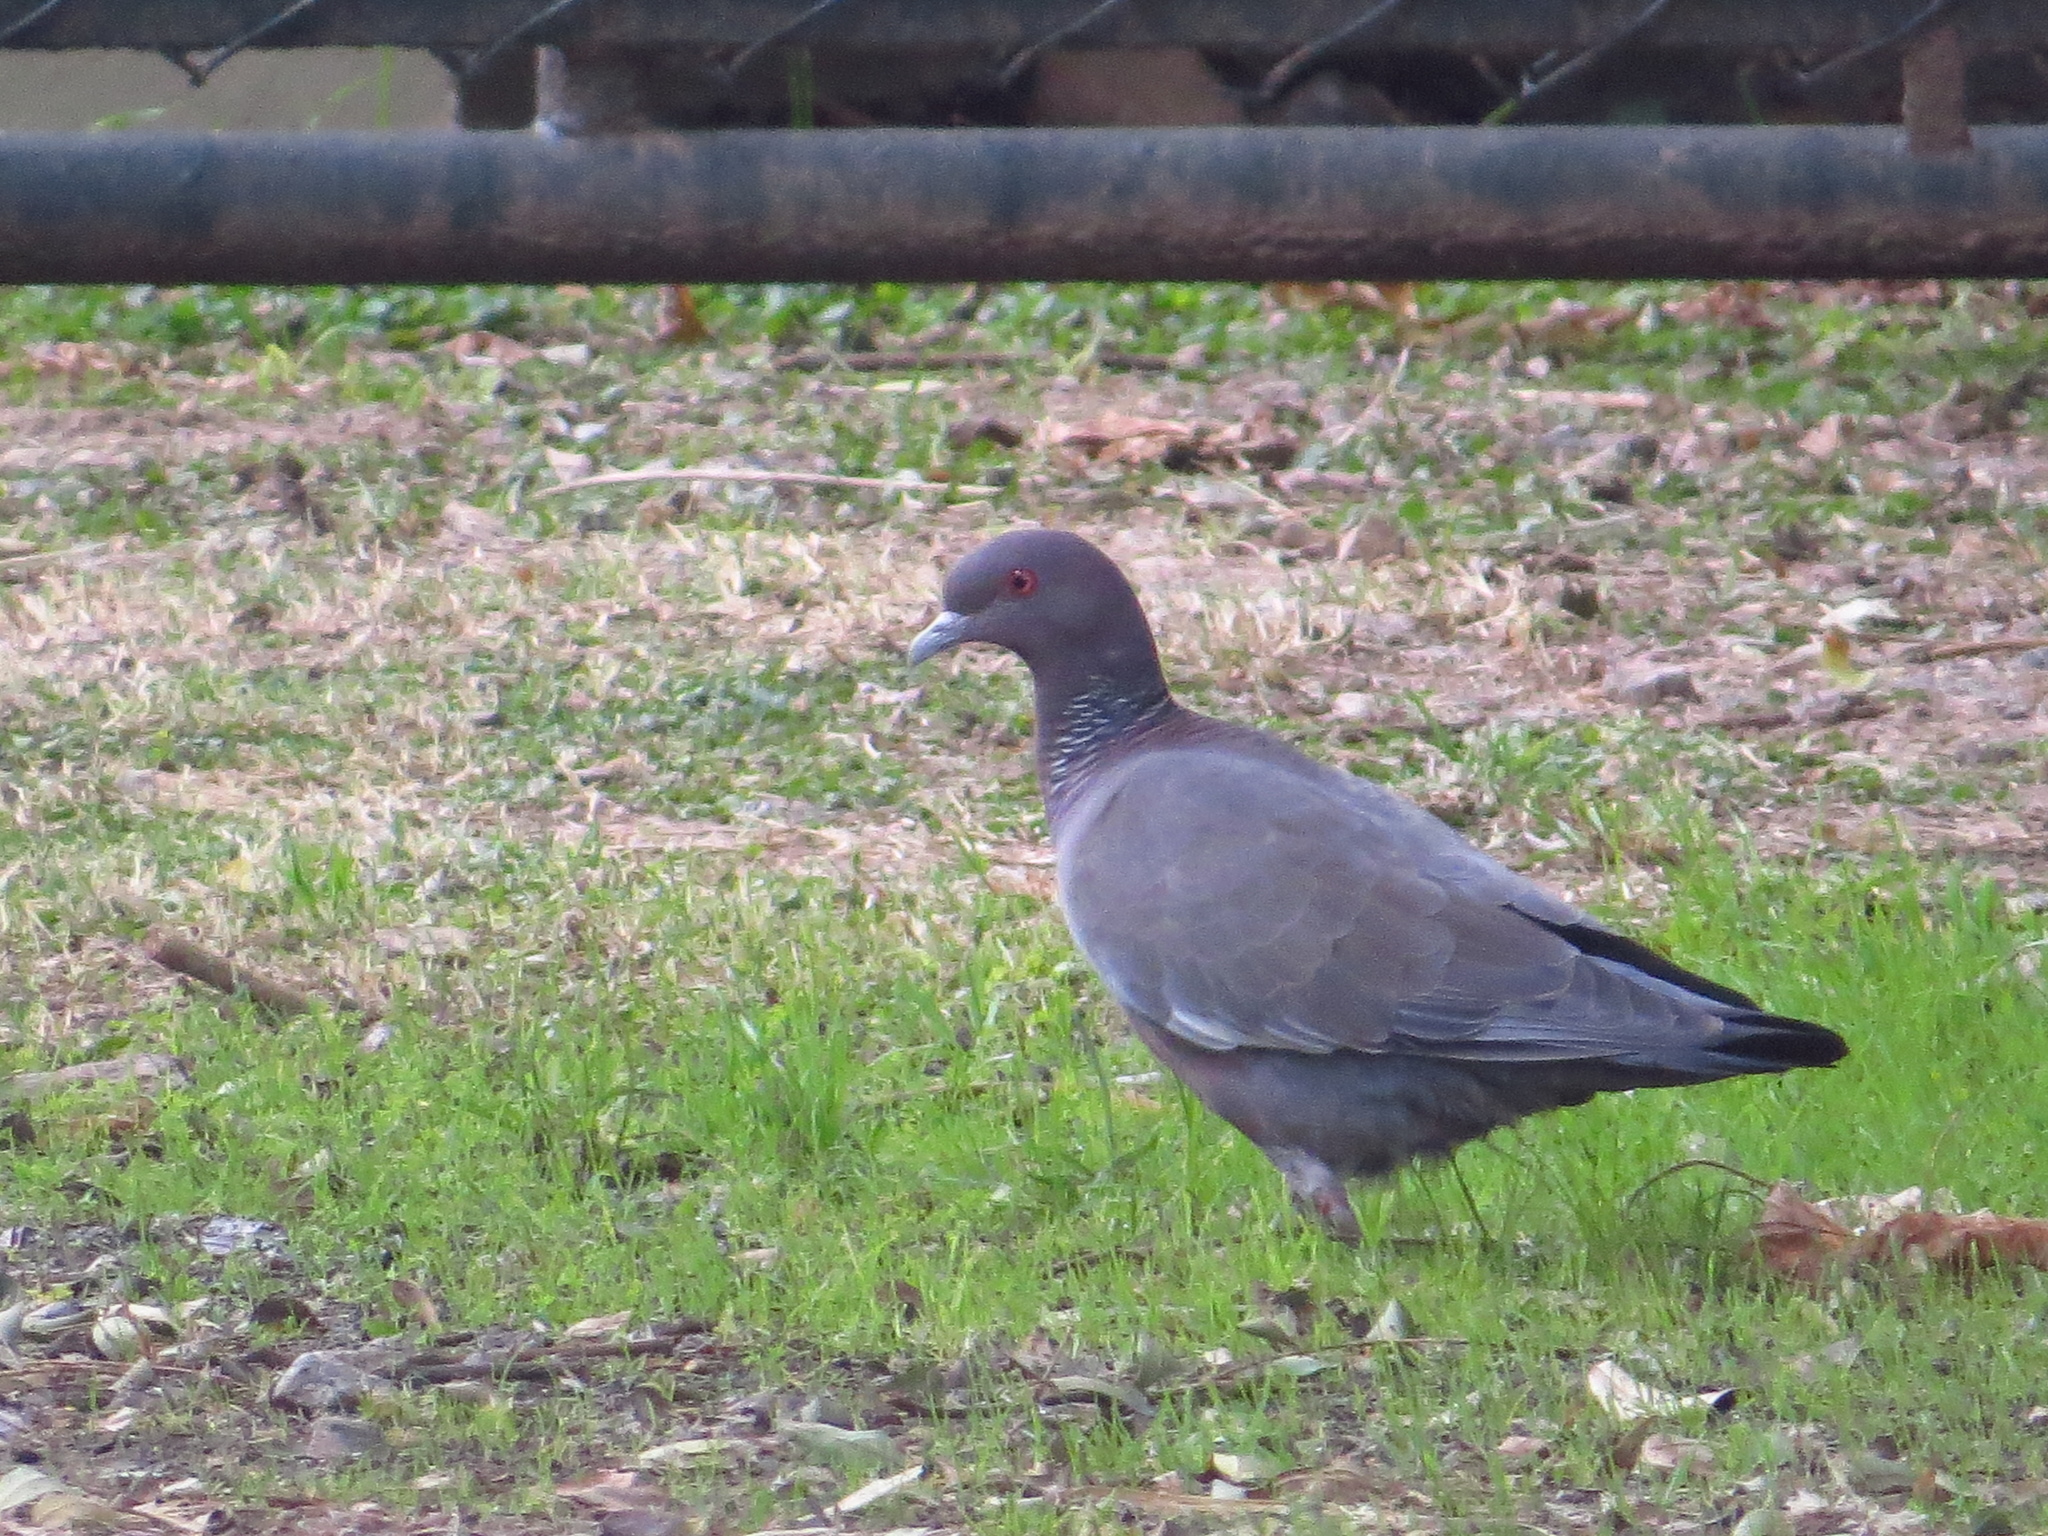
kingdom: Animalia
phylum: Chordata
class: Aves
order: Columbiformes
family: Columbidae
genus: Patagioenas
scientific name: Patagioenas picazuro
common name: Picazuro pigeon
